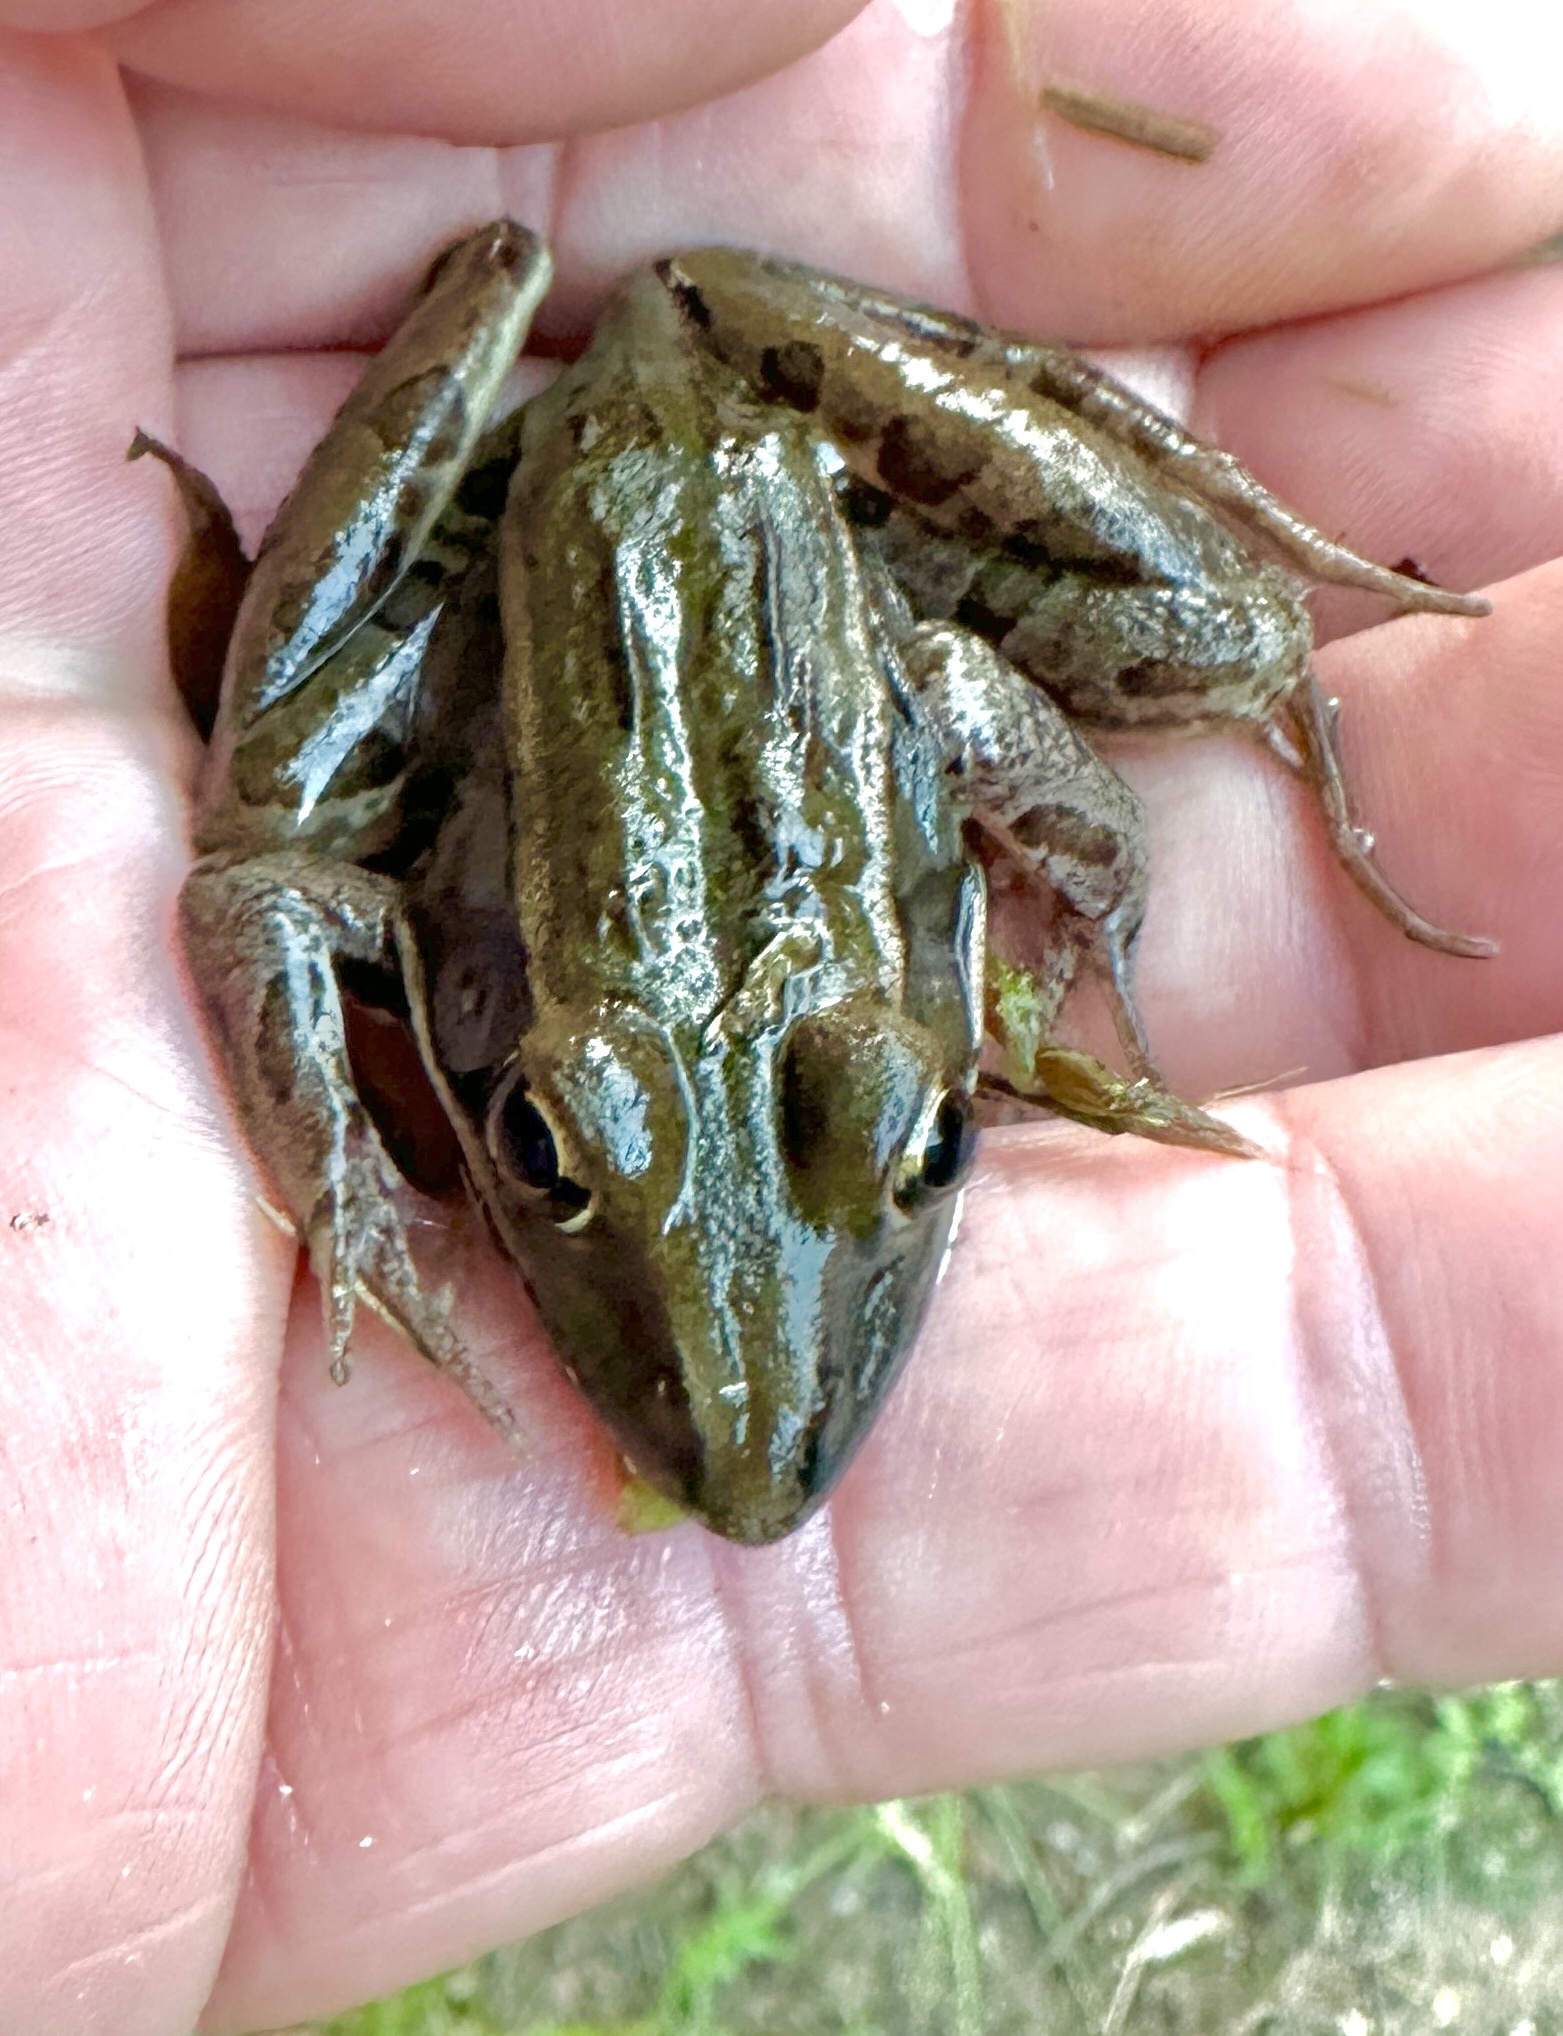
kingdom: Animalia
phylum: Chordata
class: Amphibia
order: Anura
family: Ranidae
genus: Lithobates
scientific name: Lithobates sphenocephalus
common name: Southern leopard frog
